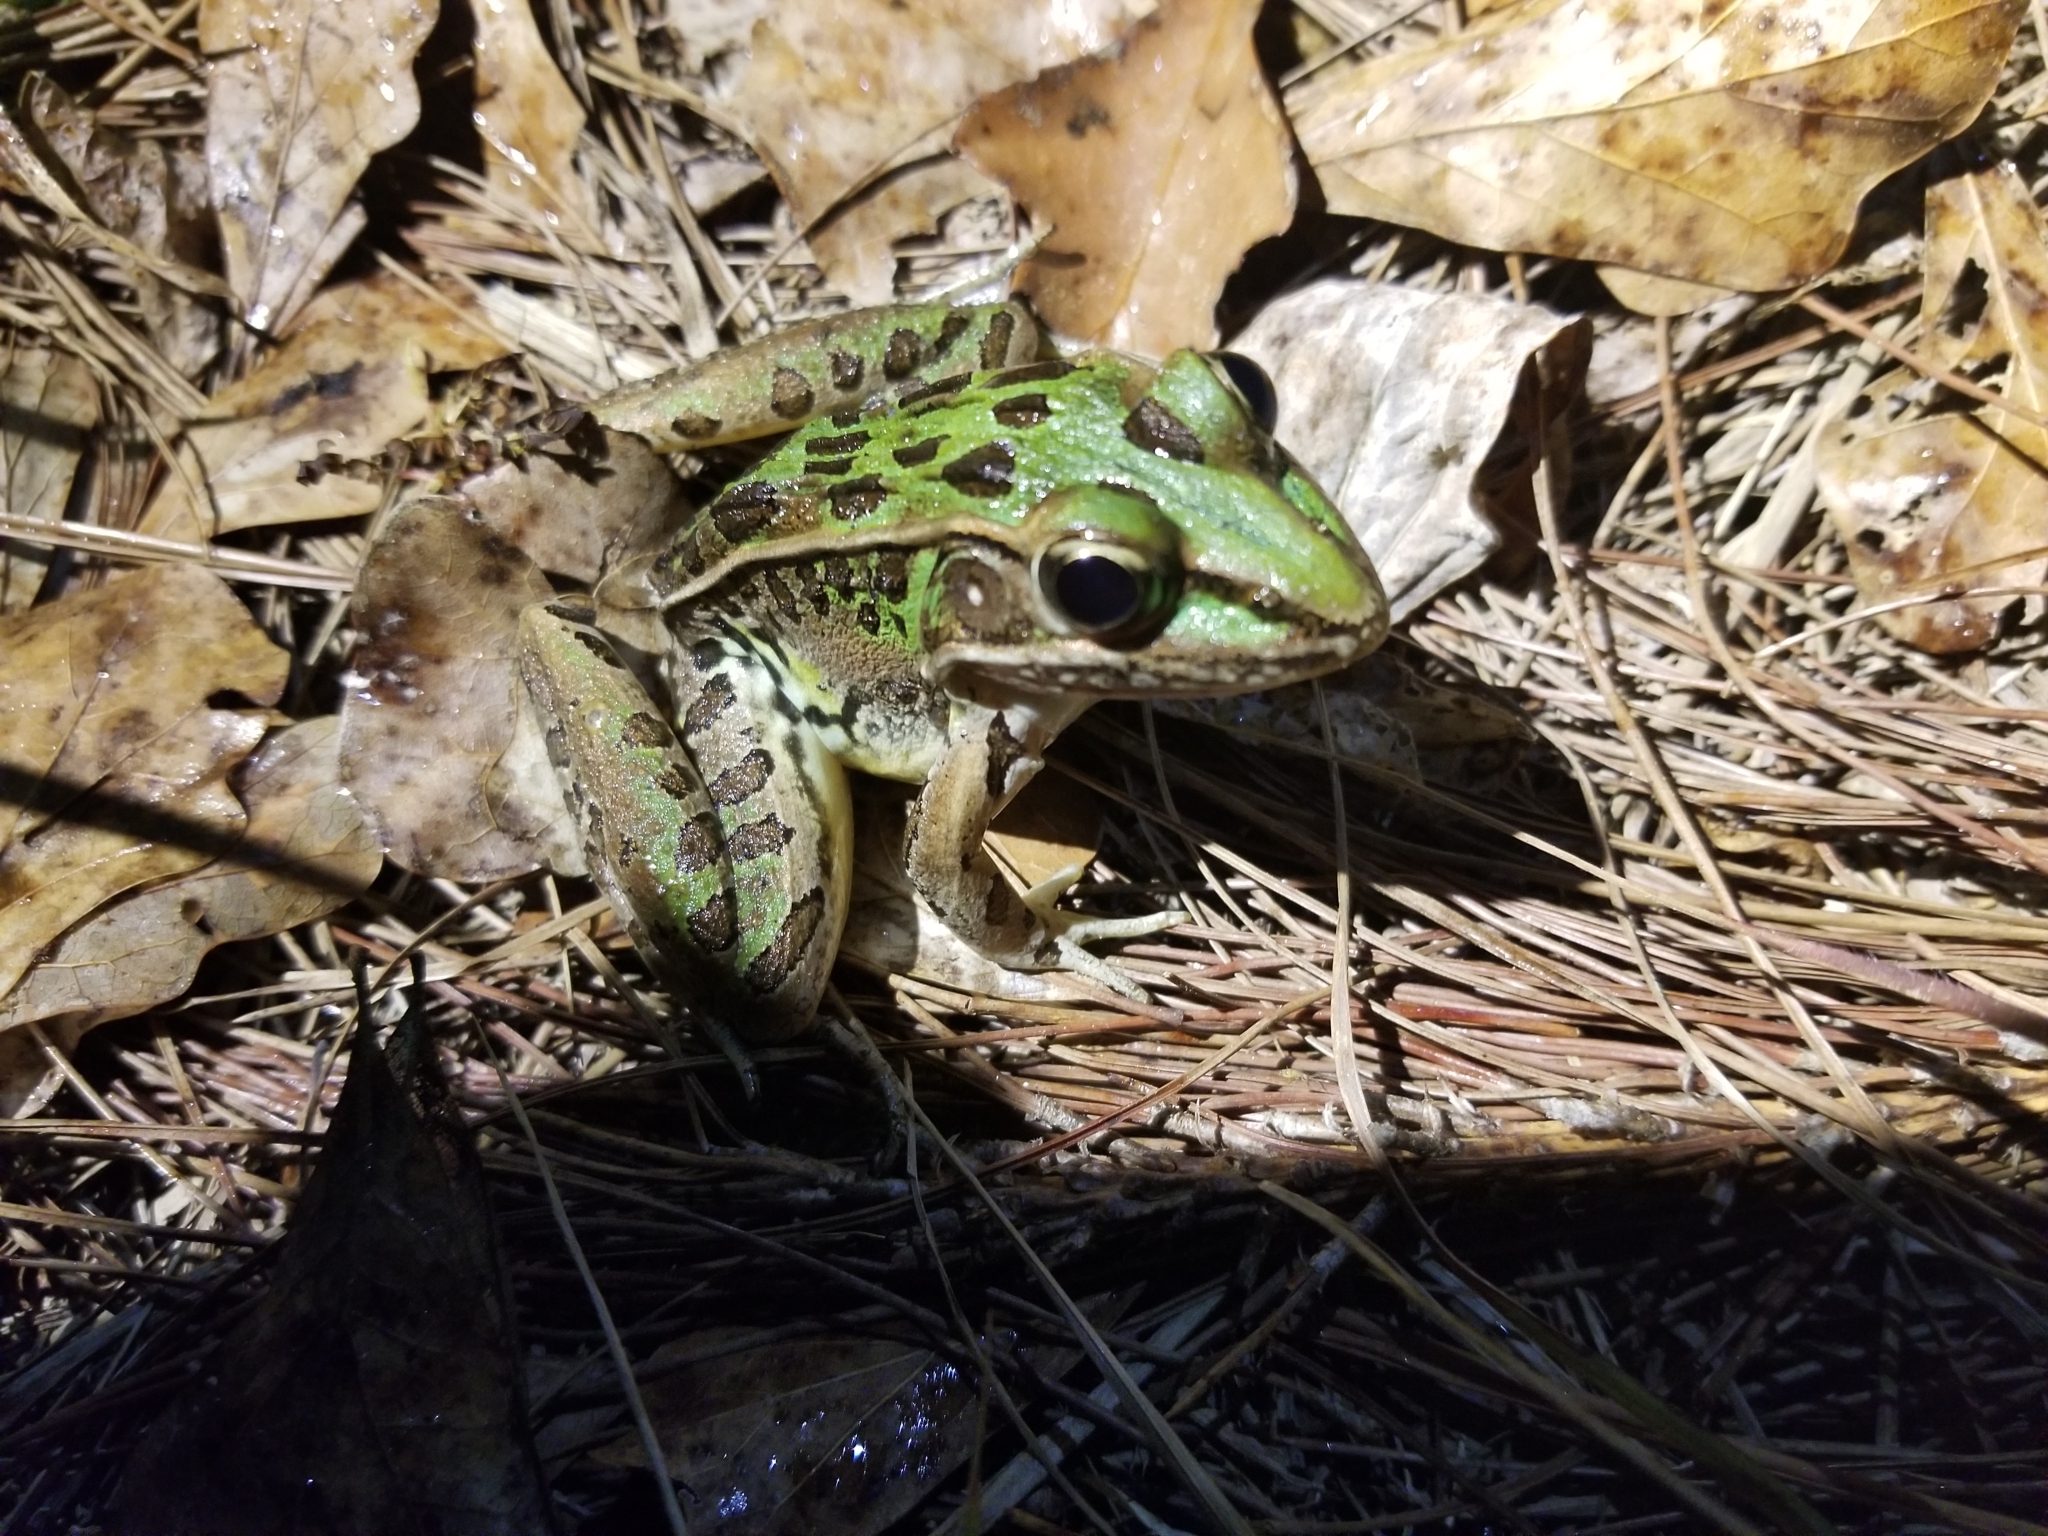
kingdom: Animalia
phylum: Chordata
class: Amphibia
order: Anura
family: Ranidae
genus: Lithobates
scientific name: Lithobates sphenocephalus
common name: Southern leopard frog
